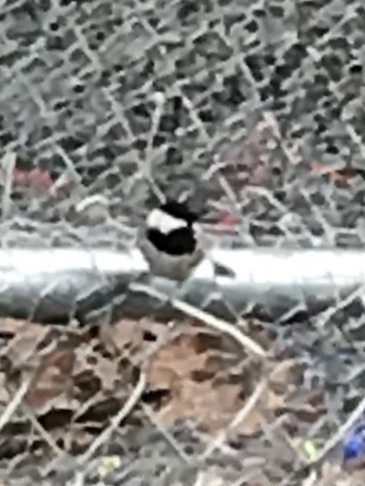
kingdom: Animalia
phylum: Chordata
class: Aves
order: Passeriformes
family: Paridae
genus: Poecile
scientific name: Poecile carolinensis
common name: Carolina chickadee
